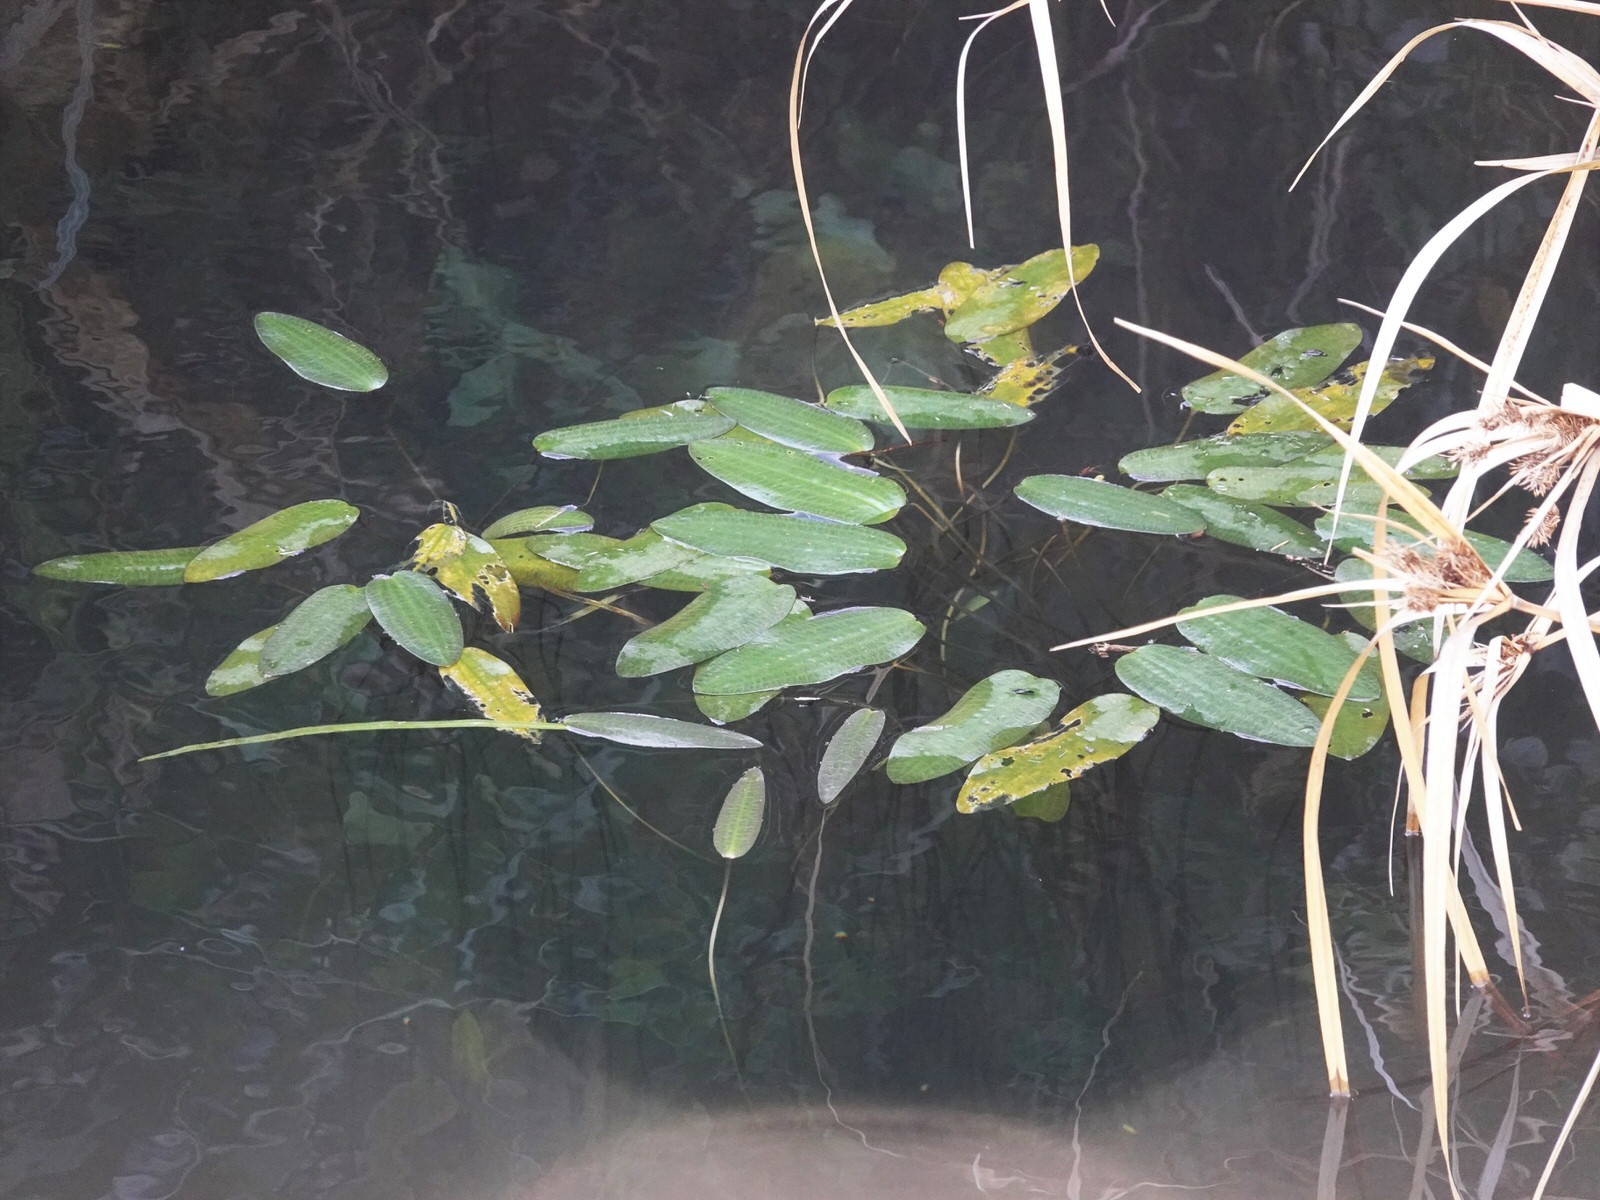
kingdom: Plantae
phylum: Tracheophyta
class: Liliopsida
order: Alismatales
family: Hydrocharitaceae
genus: Ottelia
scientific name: Ottelia ovalifolia
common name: Swamp-lily
